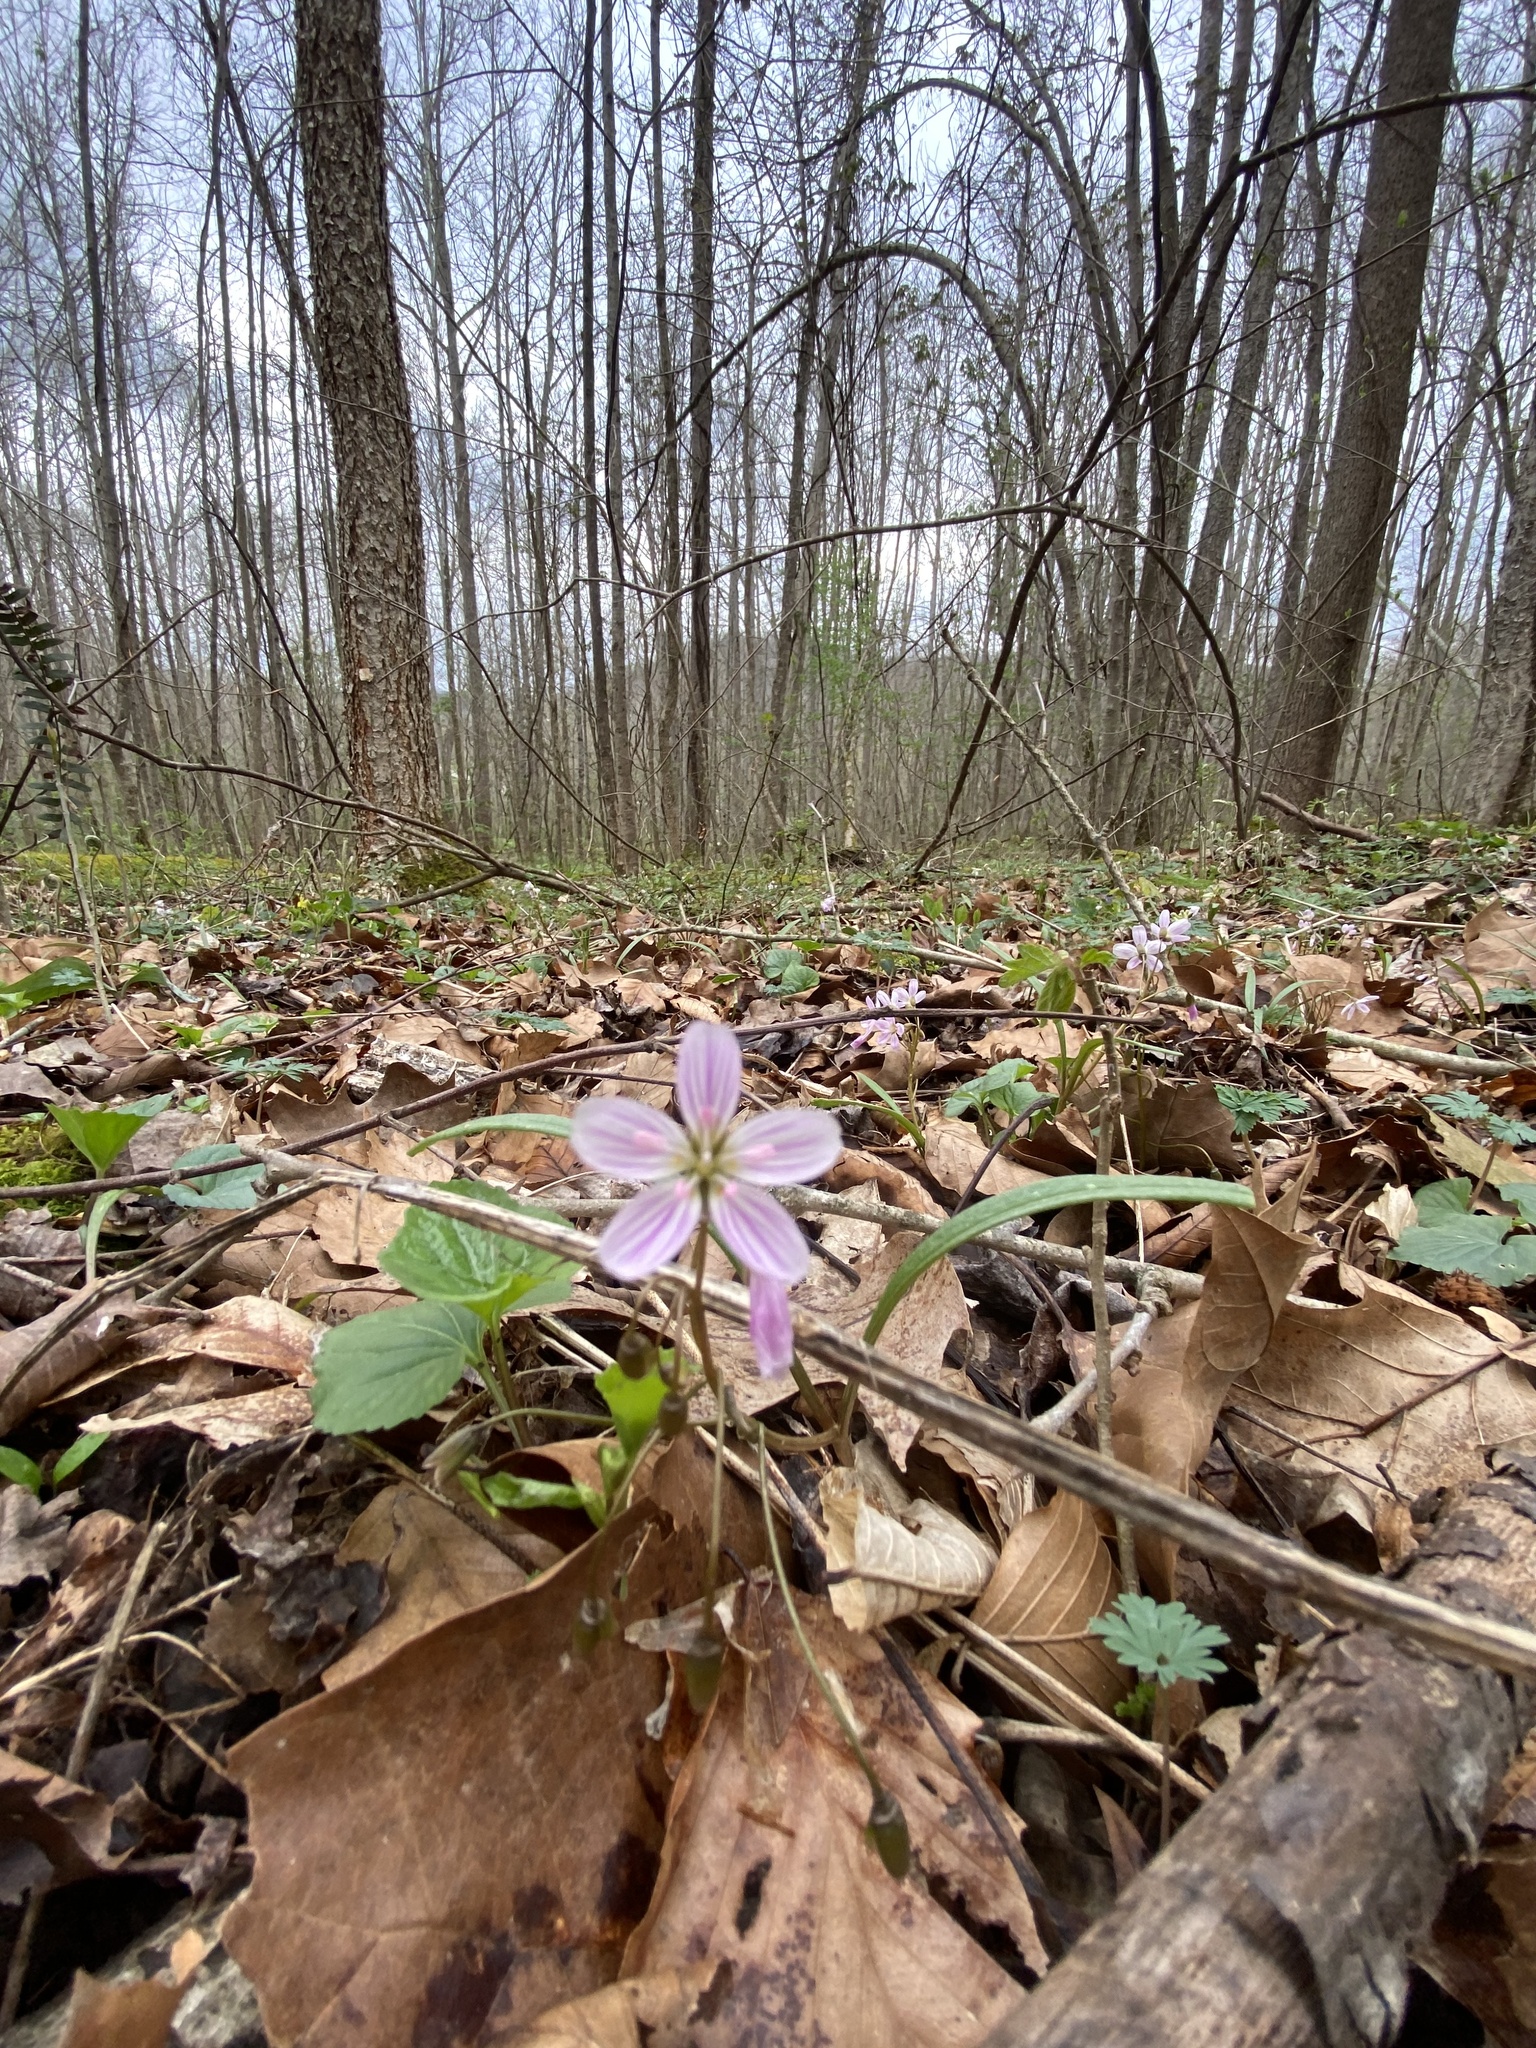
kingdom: Plantae
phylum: Tracheophyta
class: Magnoliopsida
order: Caryophyllales
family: Montiaceae
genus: Claytonia
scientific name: Claytonia virginica
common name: Virginia springbeauty
